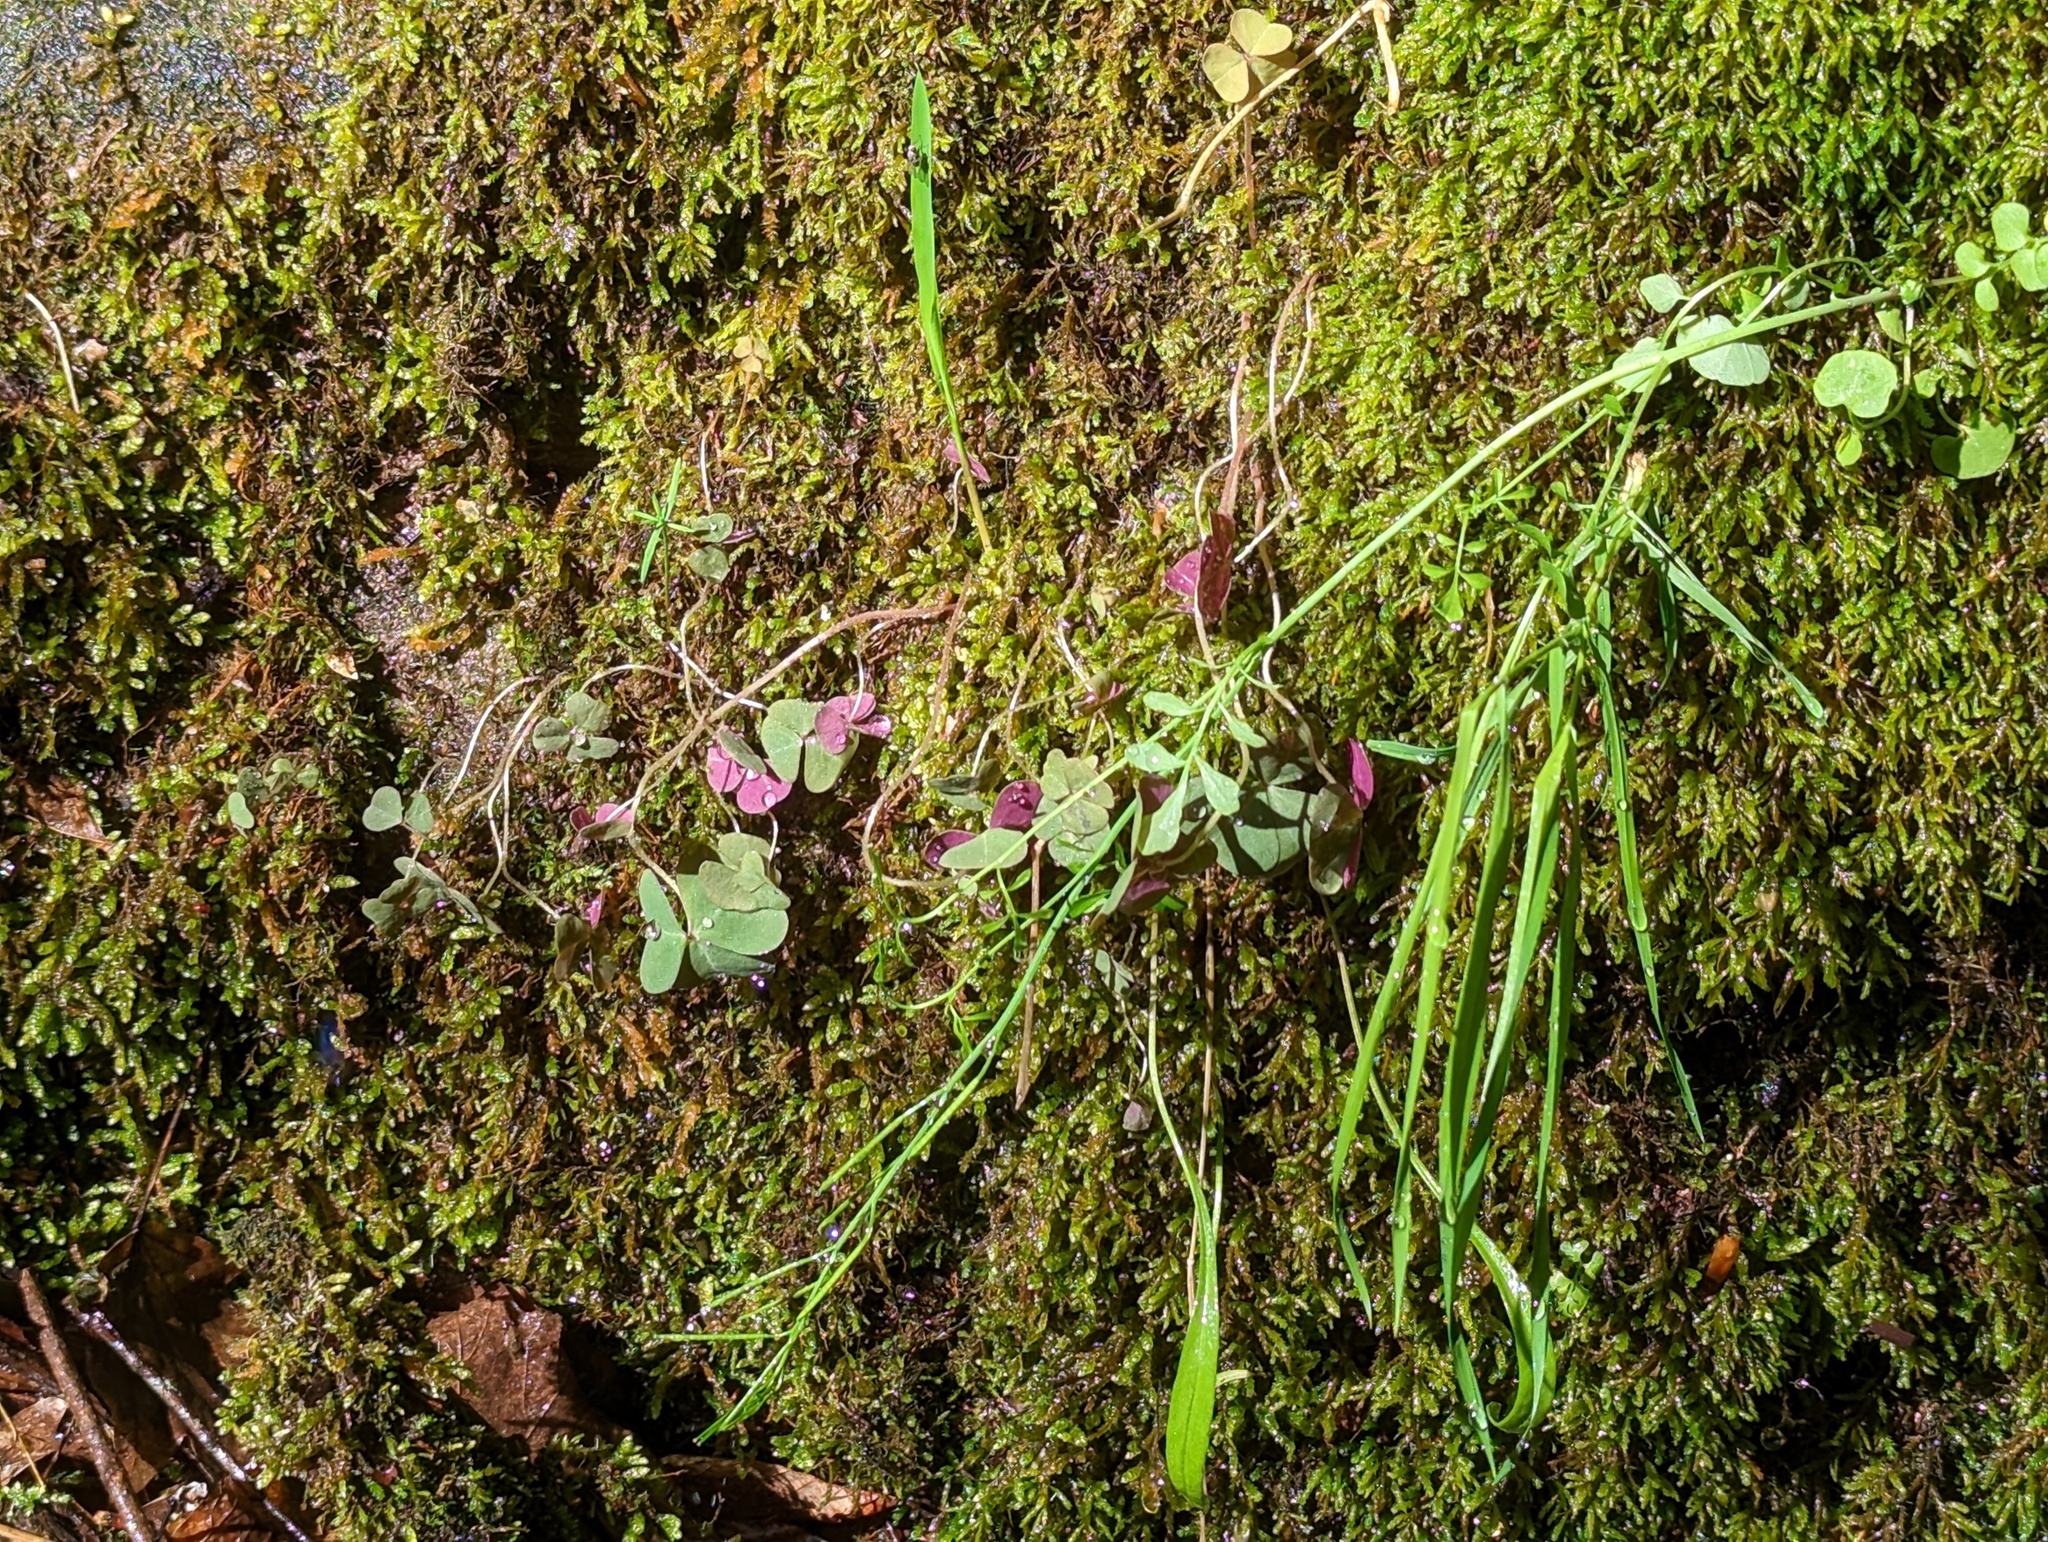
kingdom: Plantae
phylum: Tracheophyta
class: Magnoliopsida
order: Oxalidales
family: Oxalidaceae
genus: Oxalis
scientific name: Oxalis violacea
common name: Violet wood-sorrel
